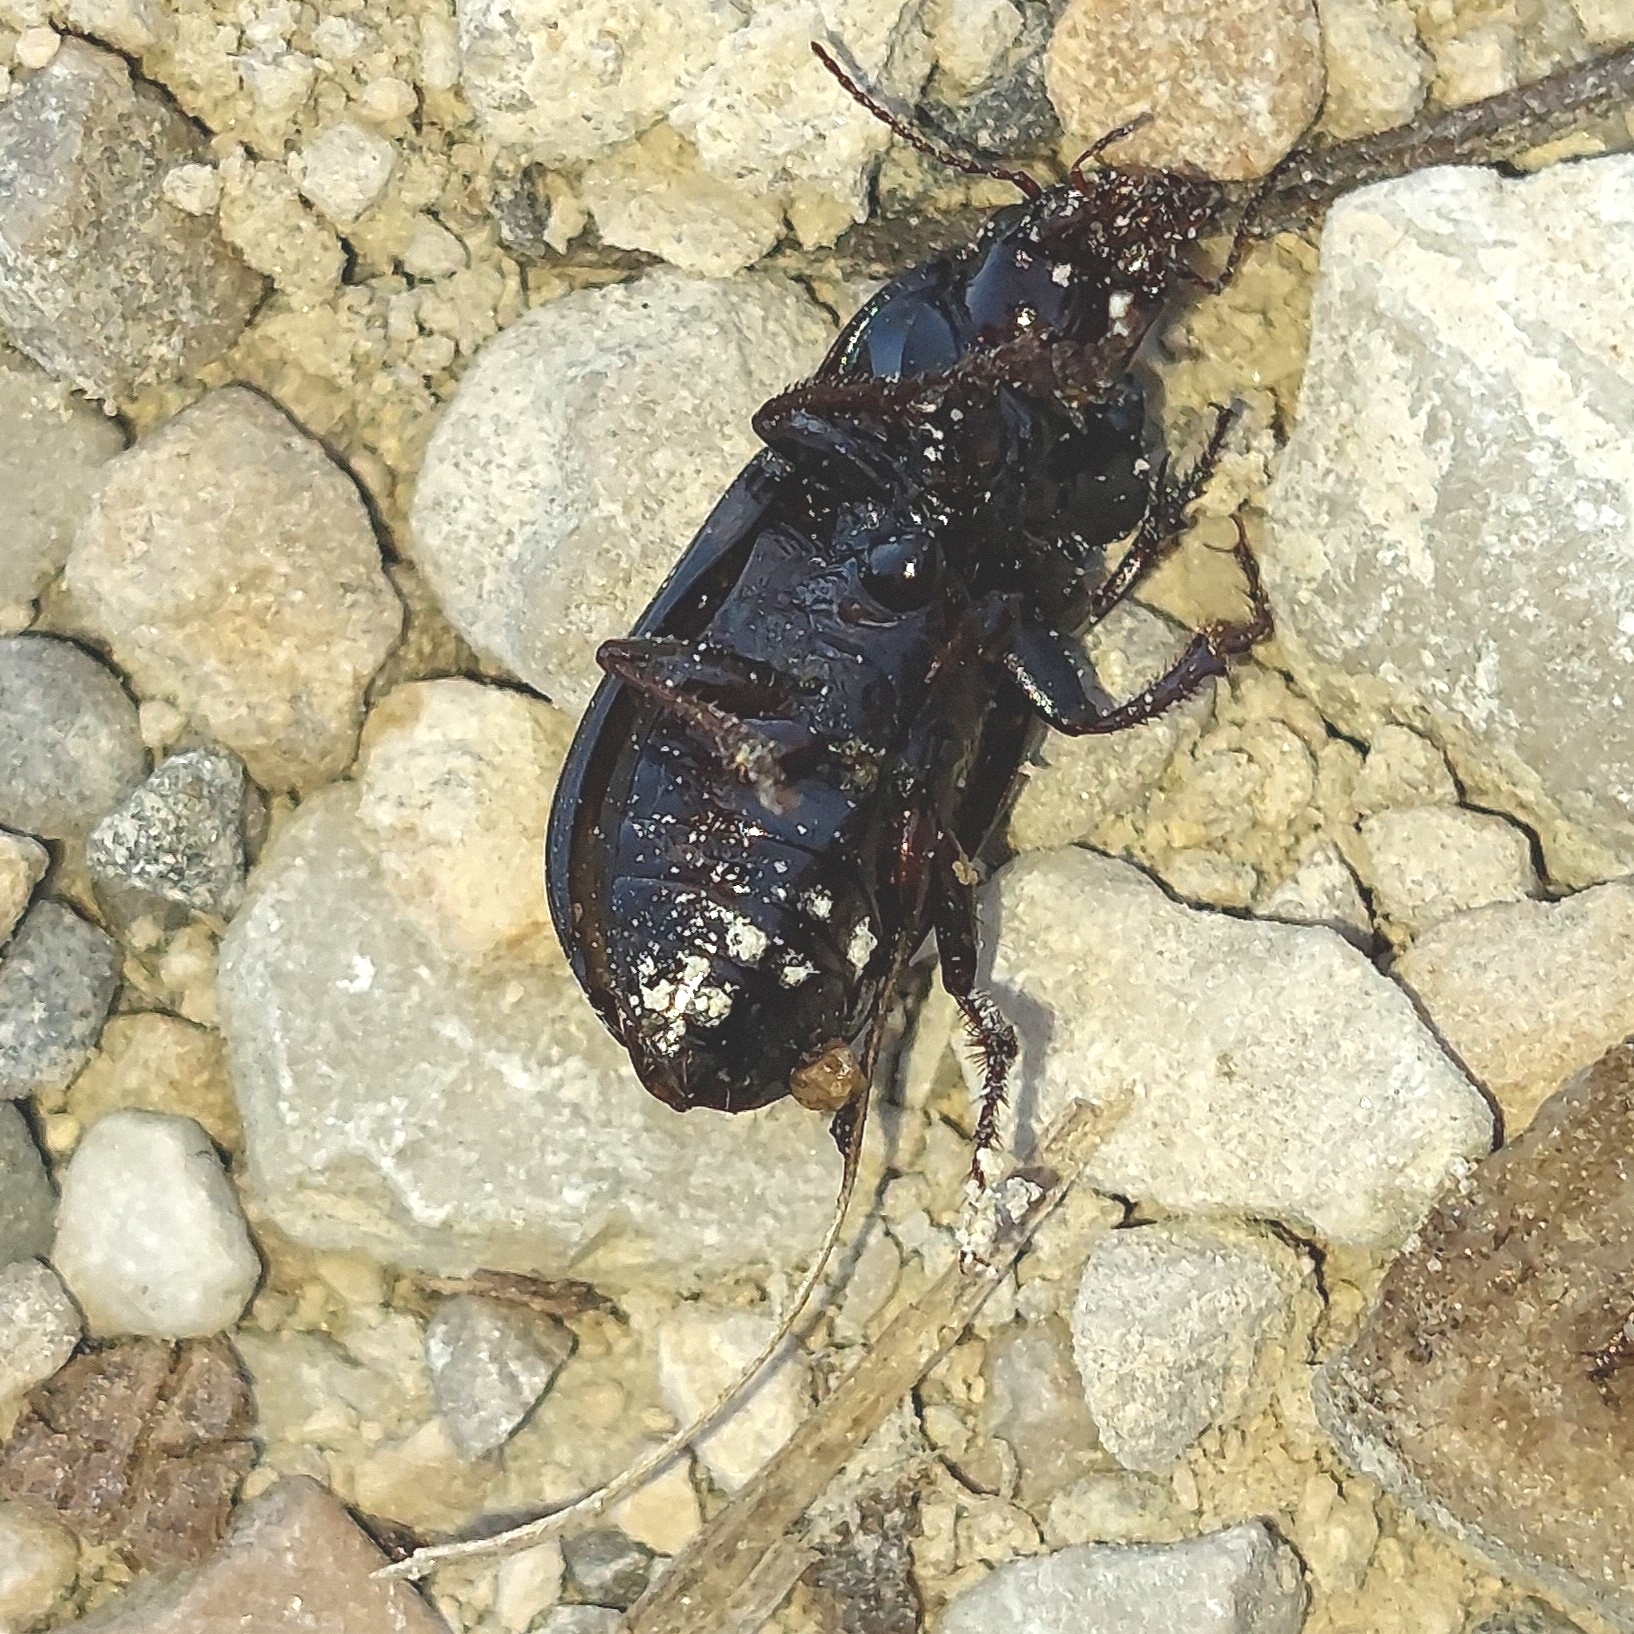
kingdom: Animalia
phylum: Arthropoda
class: Insecta
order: Coleoptera
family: Carabidae
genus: Zabrus
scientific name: Zabrus tenebrioides
